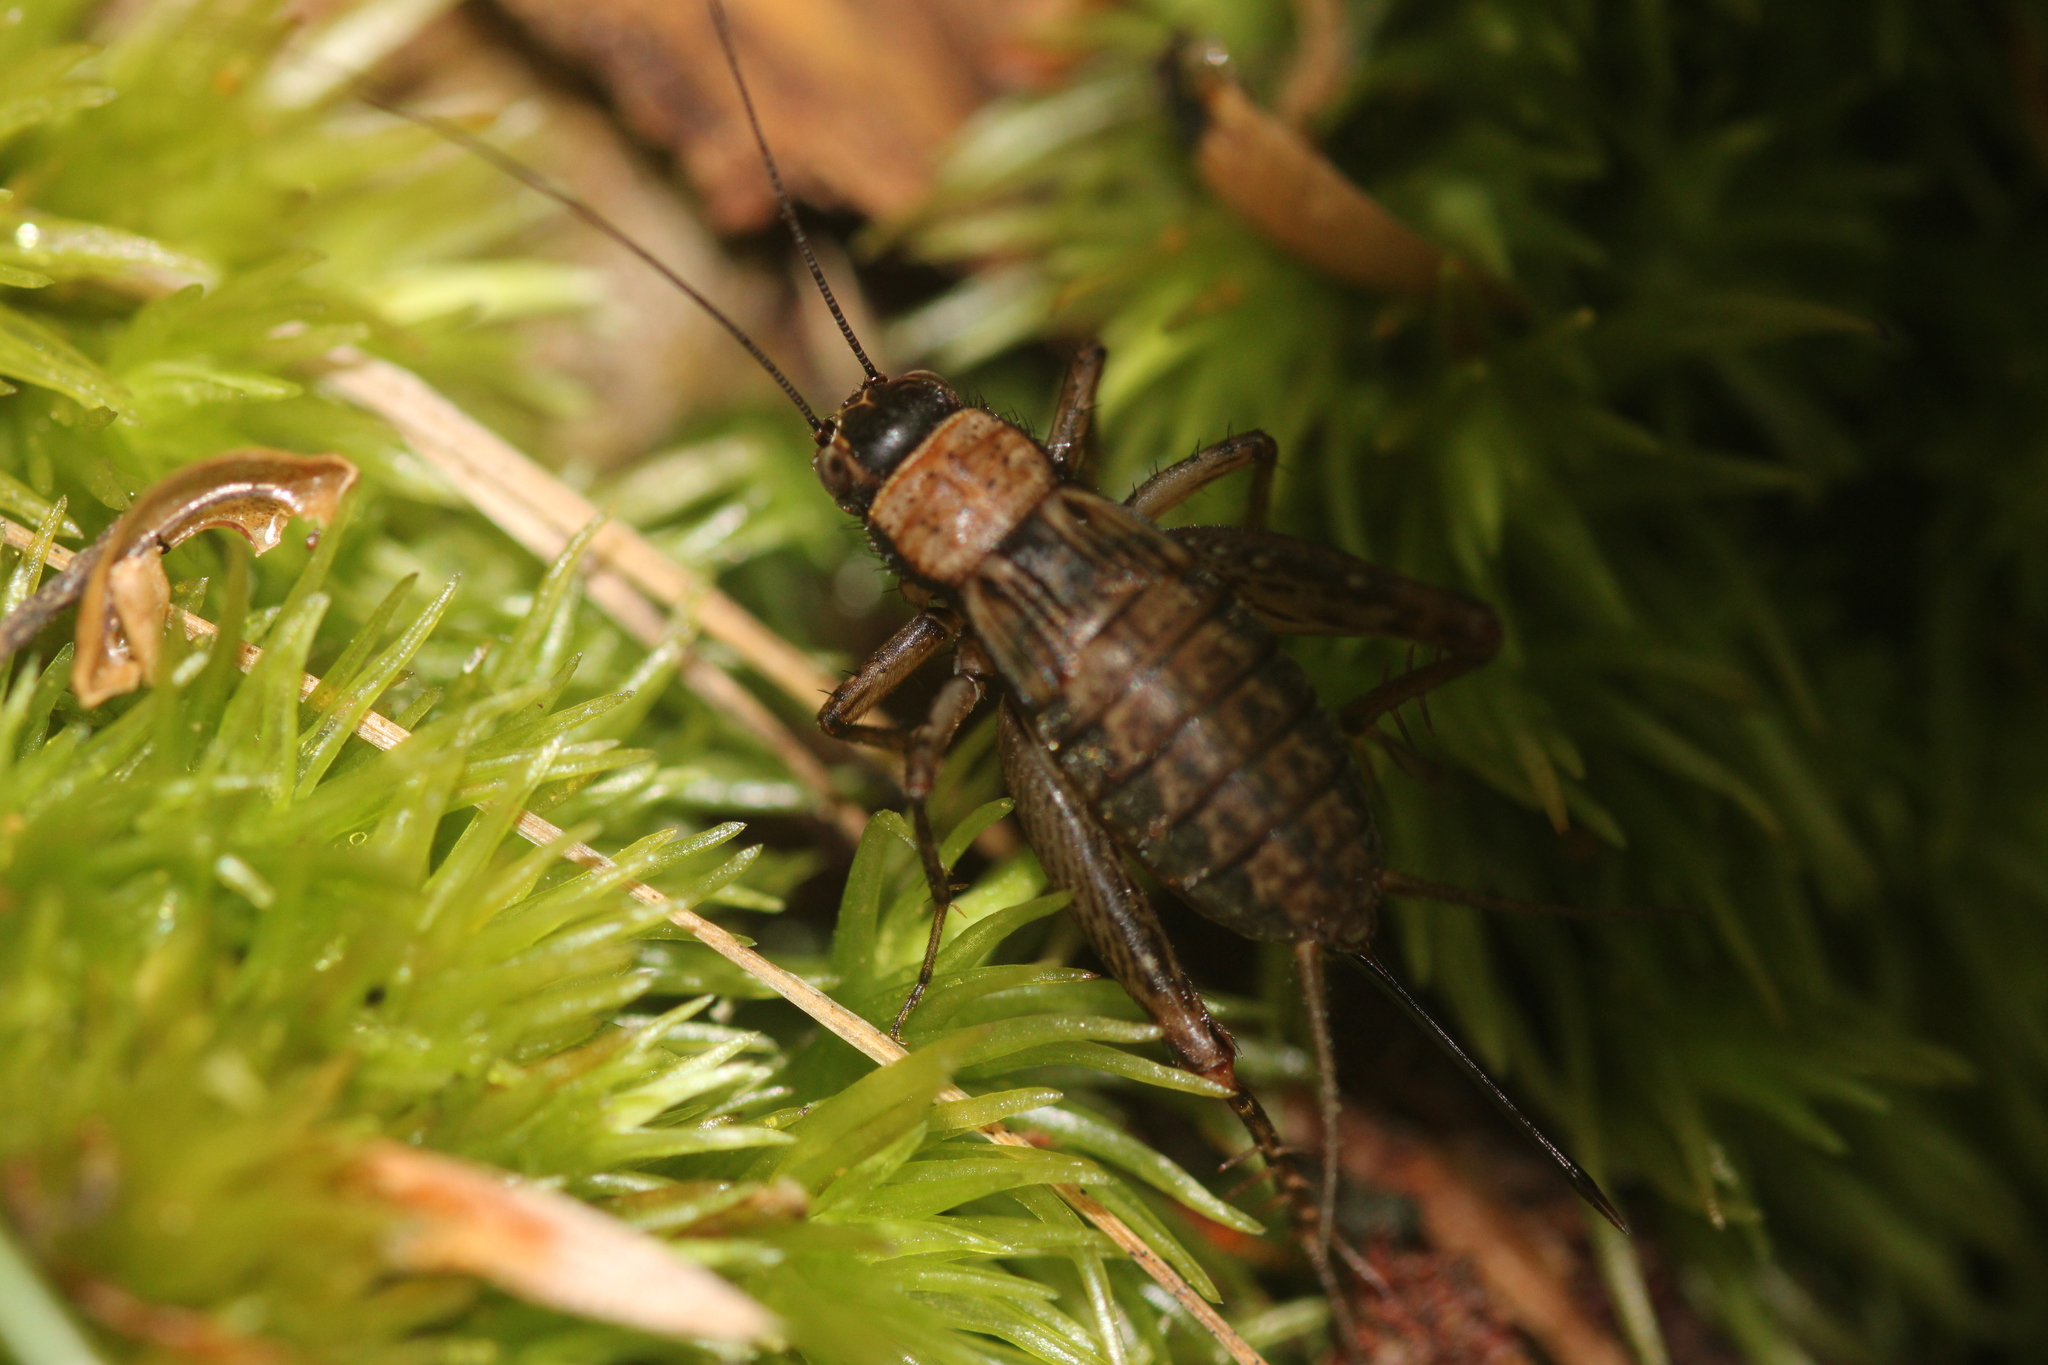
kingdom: Animalia
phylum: Arthropoda
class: Insecta
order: Orthoptera
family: Trigonidiidae
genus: Nemobius
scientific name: Nemobius sylvestris
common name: Wood-cricket
